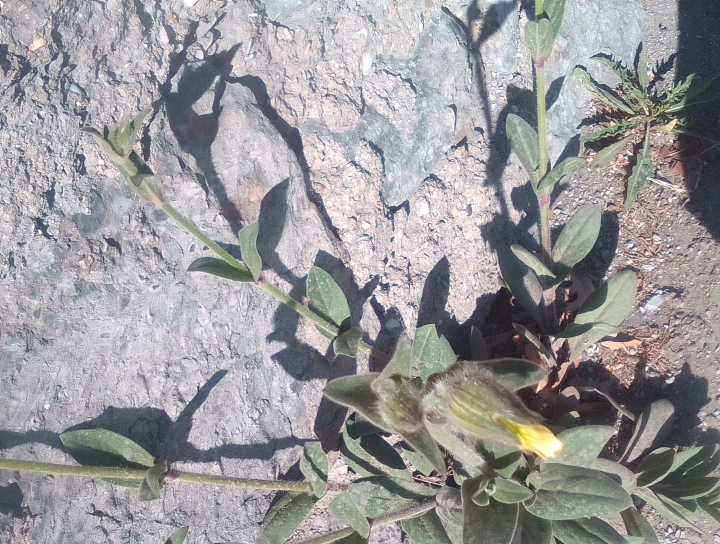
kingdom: Plantae
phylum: Tracheophyta
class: Magnoliopsida
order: Caryophyllales
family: Caryophyllaceae
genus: Silene
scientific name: Silene latifolia
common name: White campion
